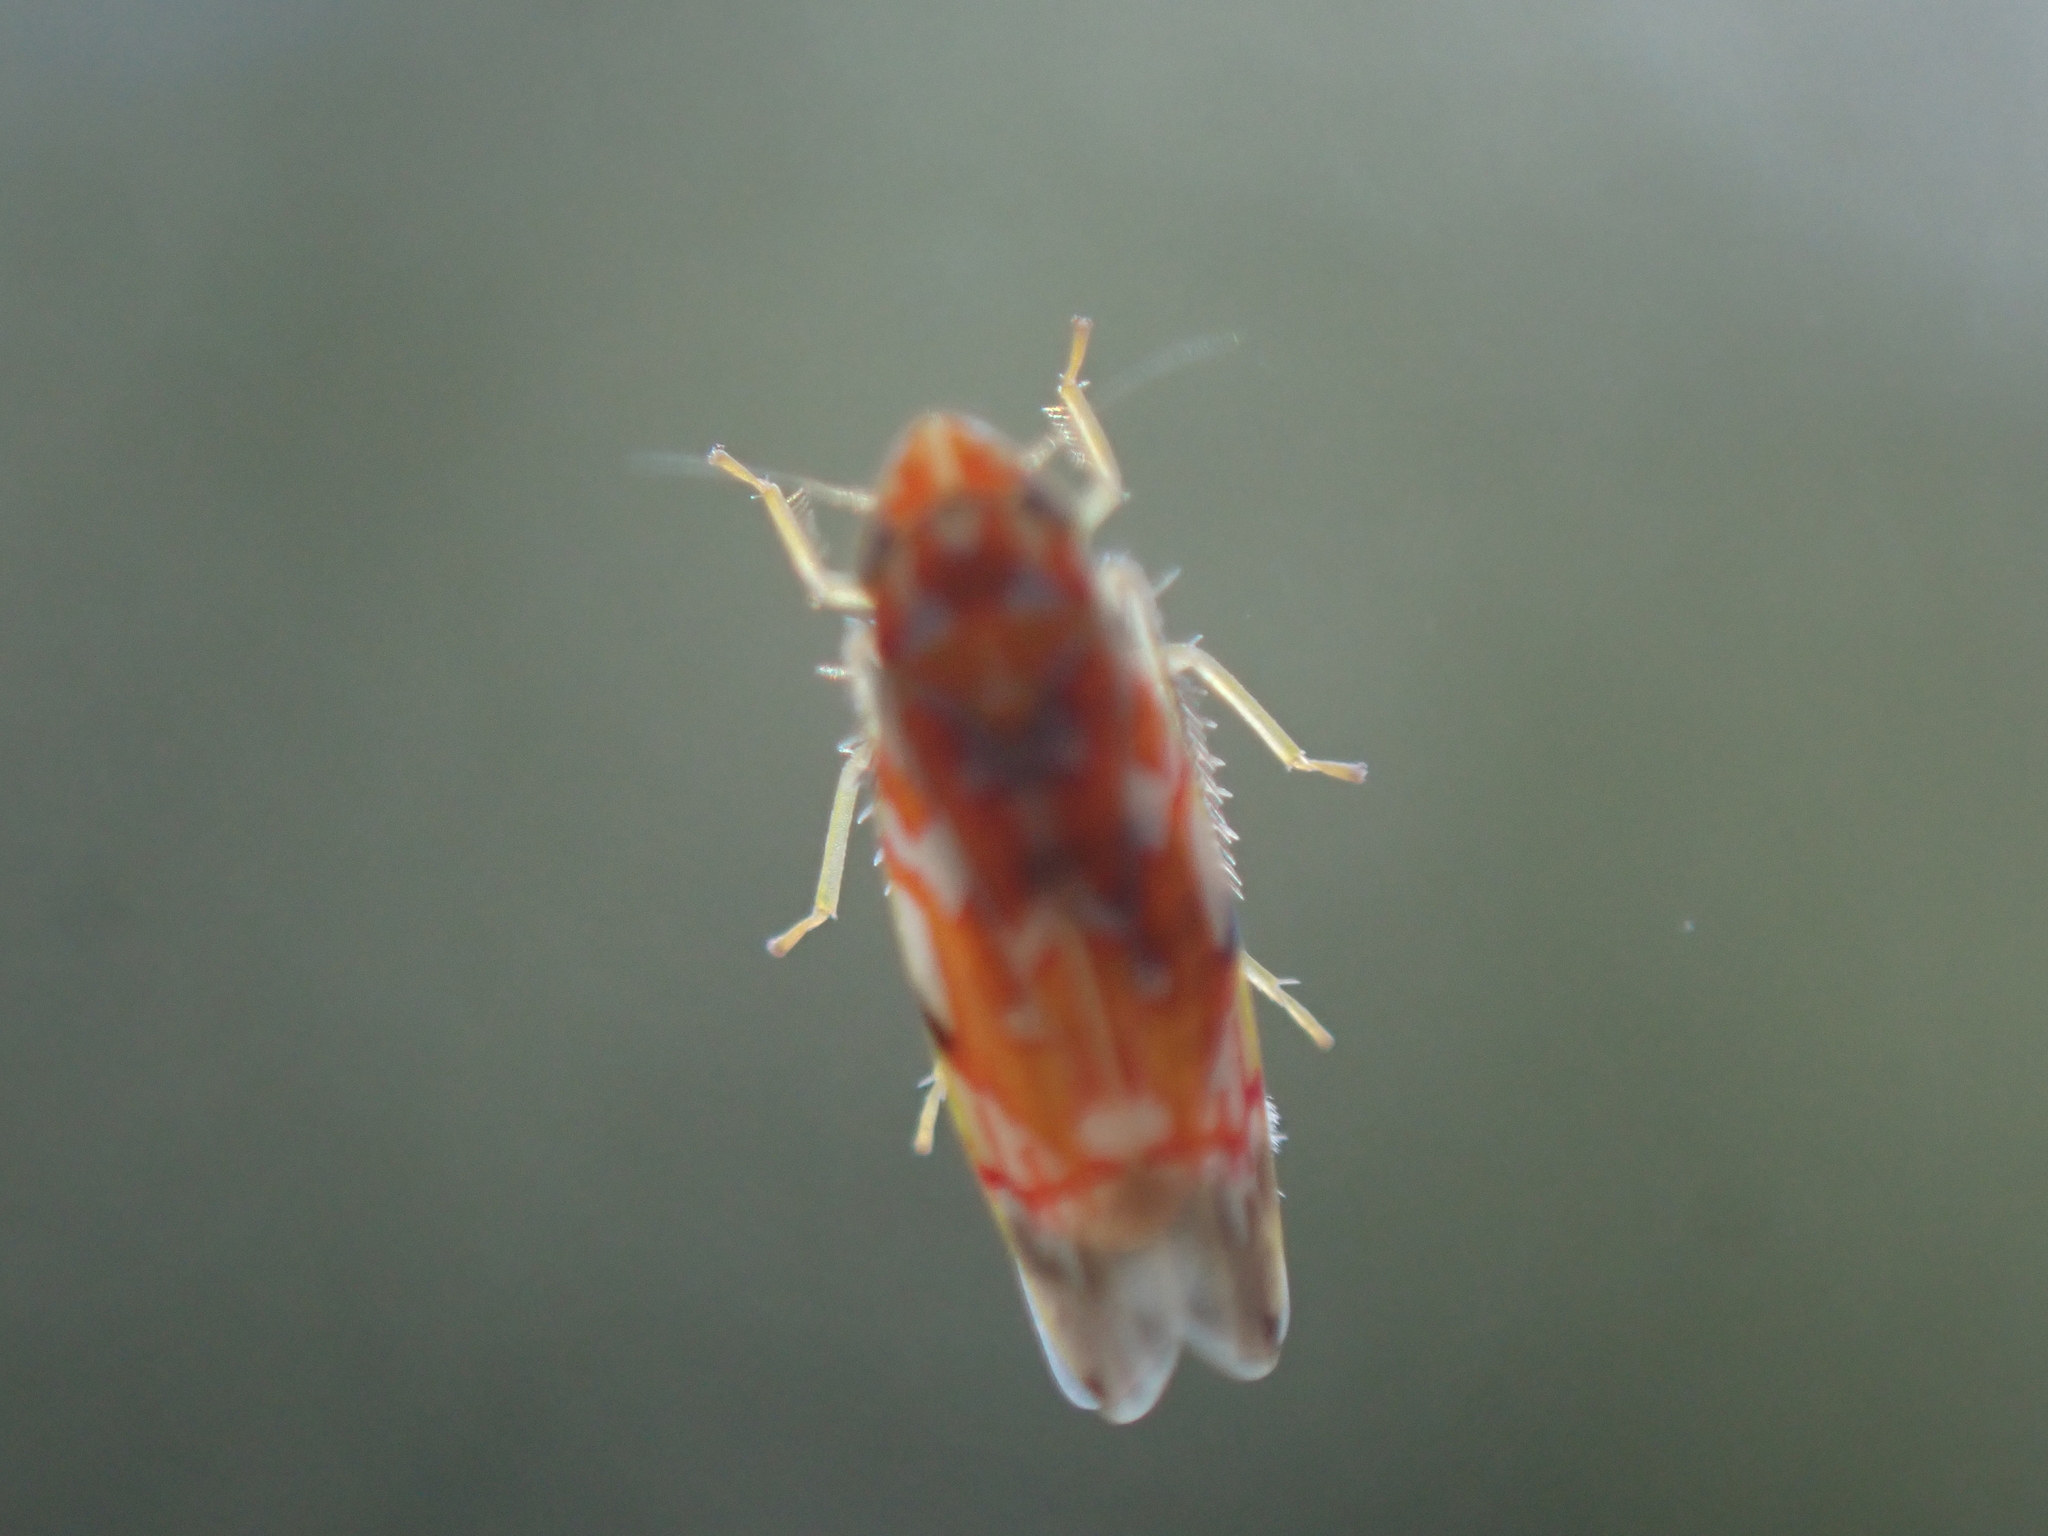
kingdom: Animalia
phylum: Arthropoda
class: Insecta
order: Hemiptera
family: Cicadellidae
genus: Erythroneura
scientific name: Erythroneura rubra
